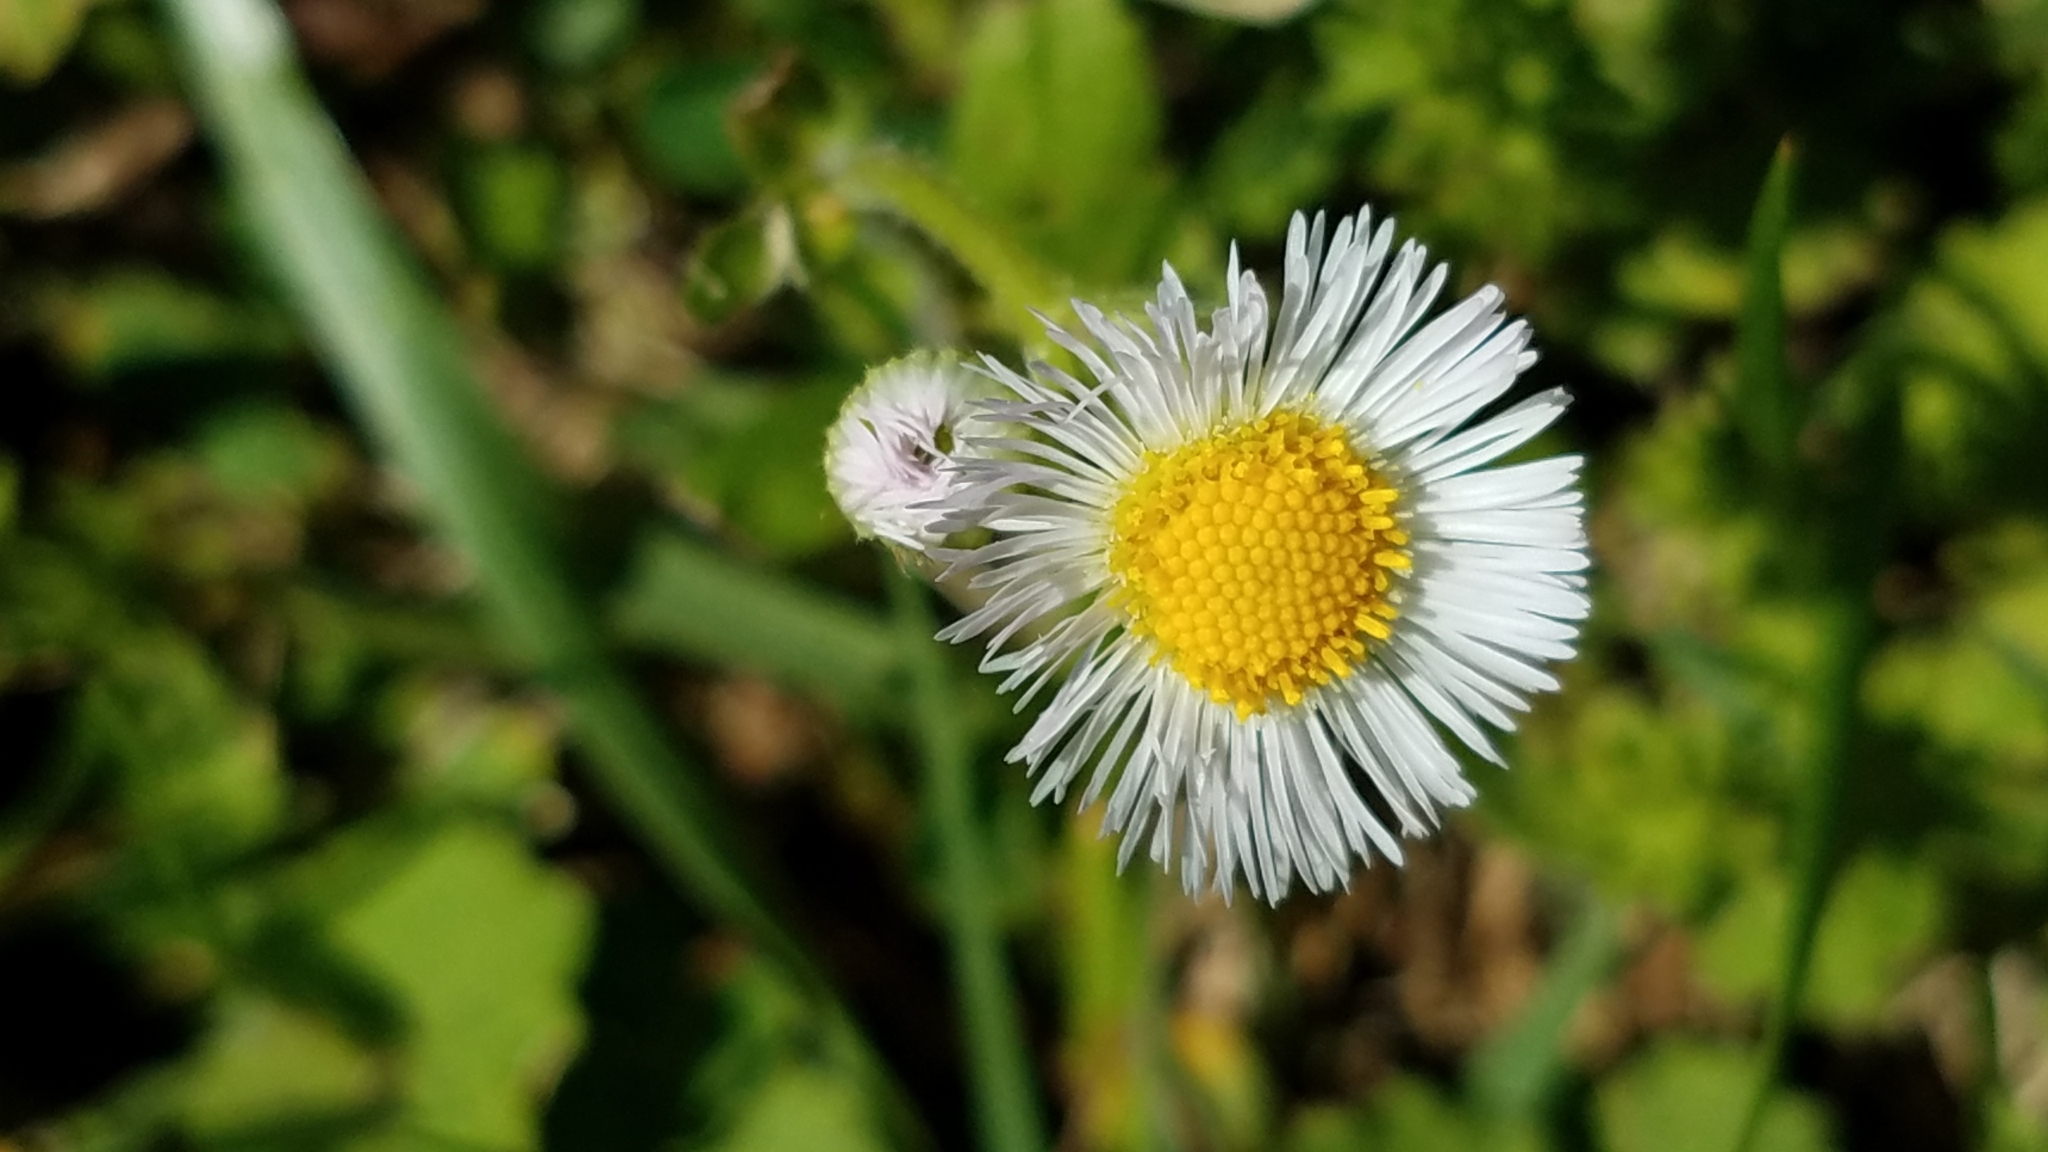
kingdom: Plantae
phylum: Tracheophyta
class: Magnoliopsida
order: Asterales
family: Asteraceae
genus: Erigeron
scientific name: Erigeron philadelphicus
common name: Robin's-plantain
